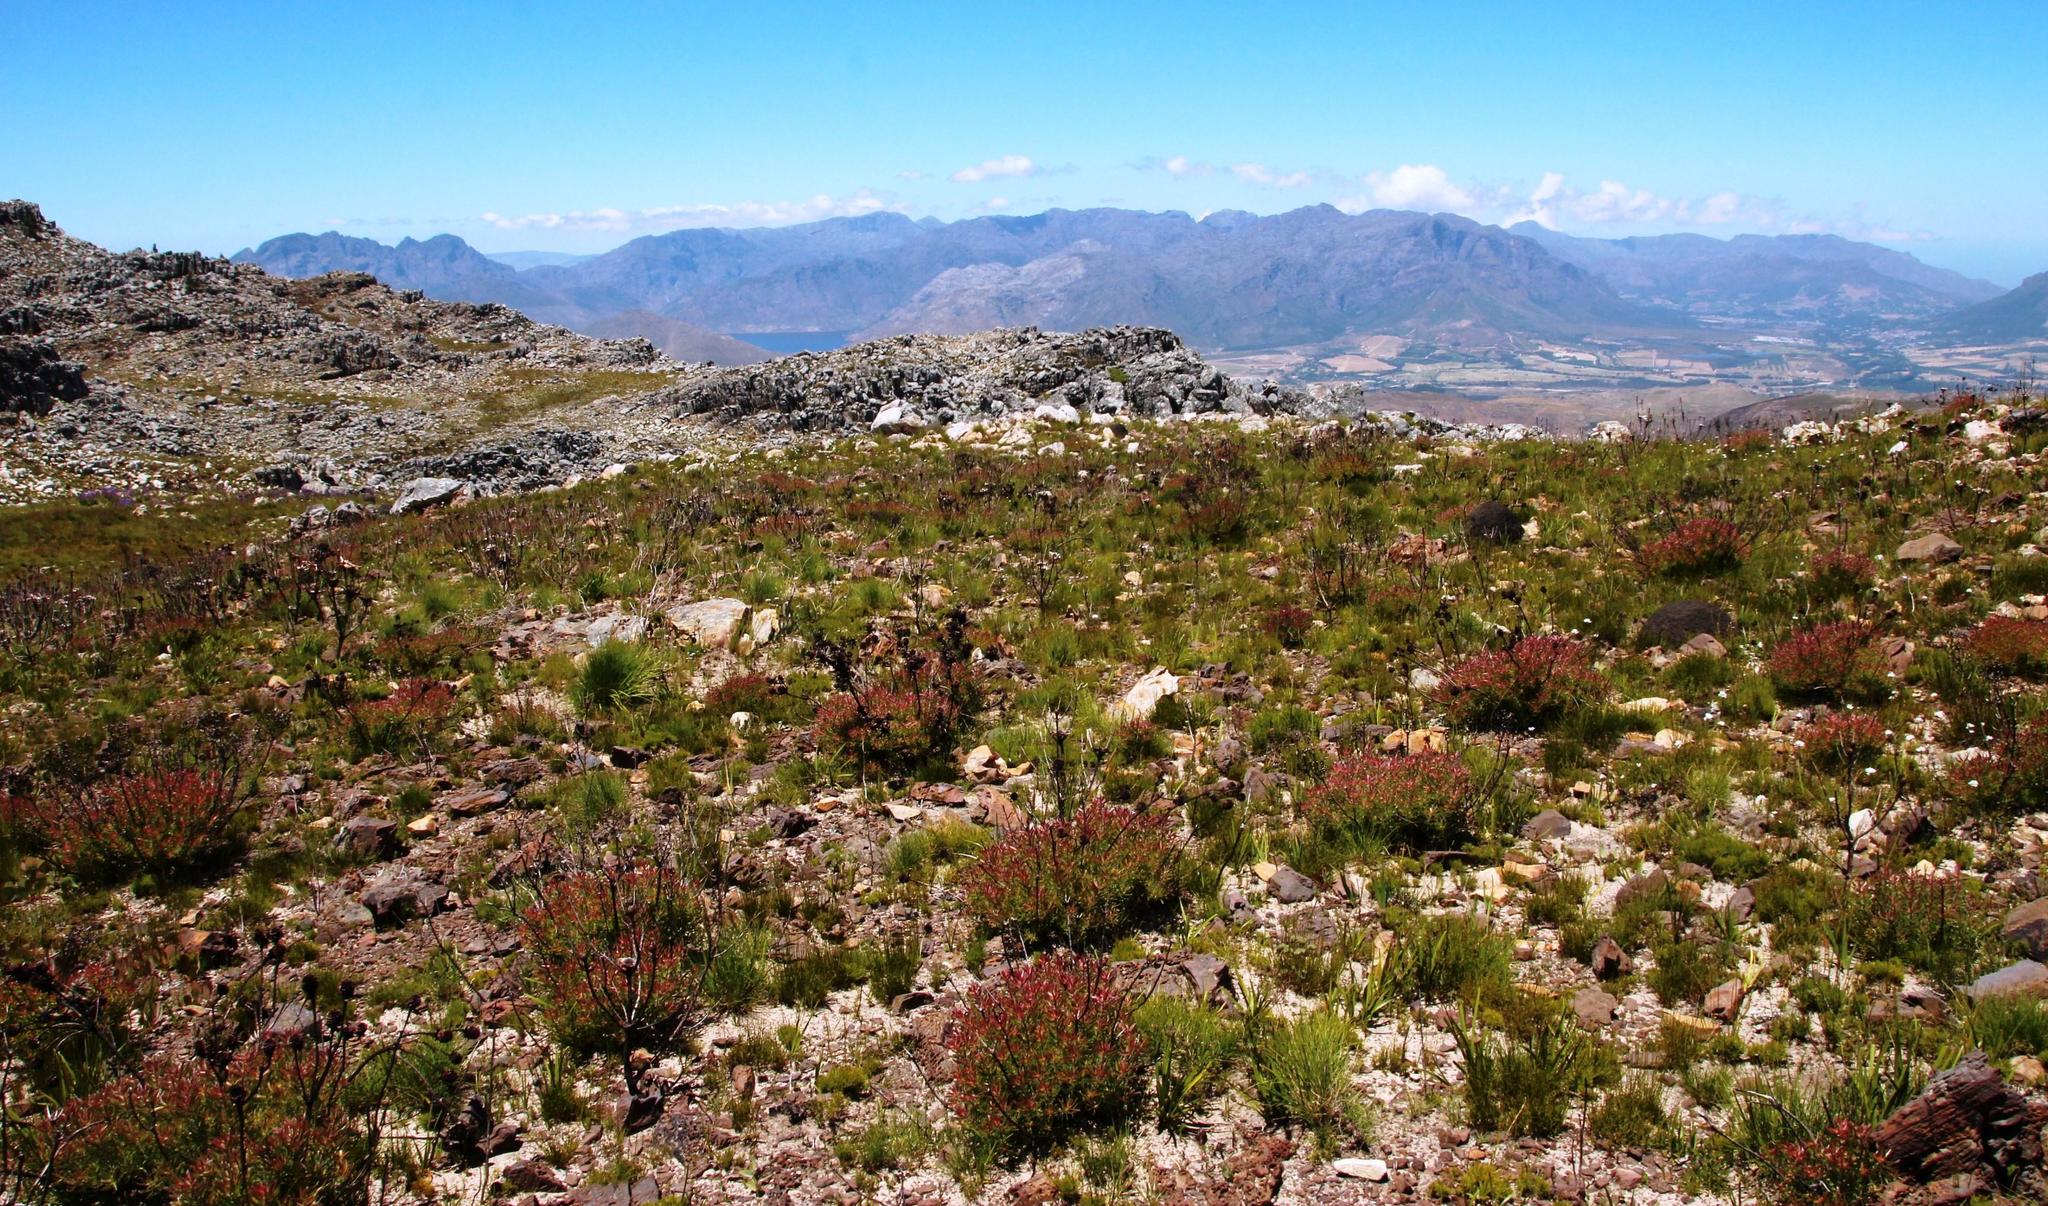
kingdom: Plantae
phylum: Tracheophyta
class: Magnoliopsida
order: Proteales
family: Proteaceae
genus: Leucadendron
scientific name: Leucadendron spissifolium
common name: Spear-leaf conebush
